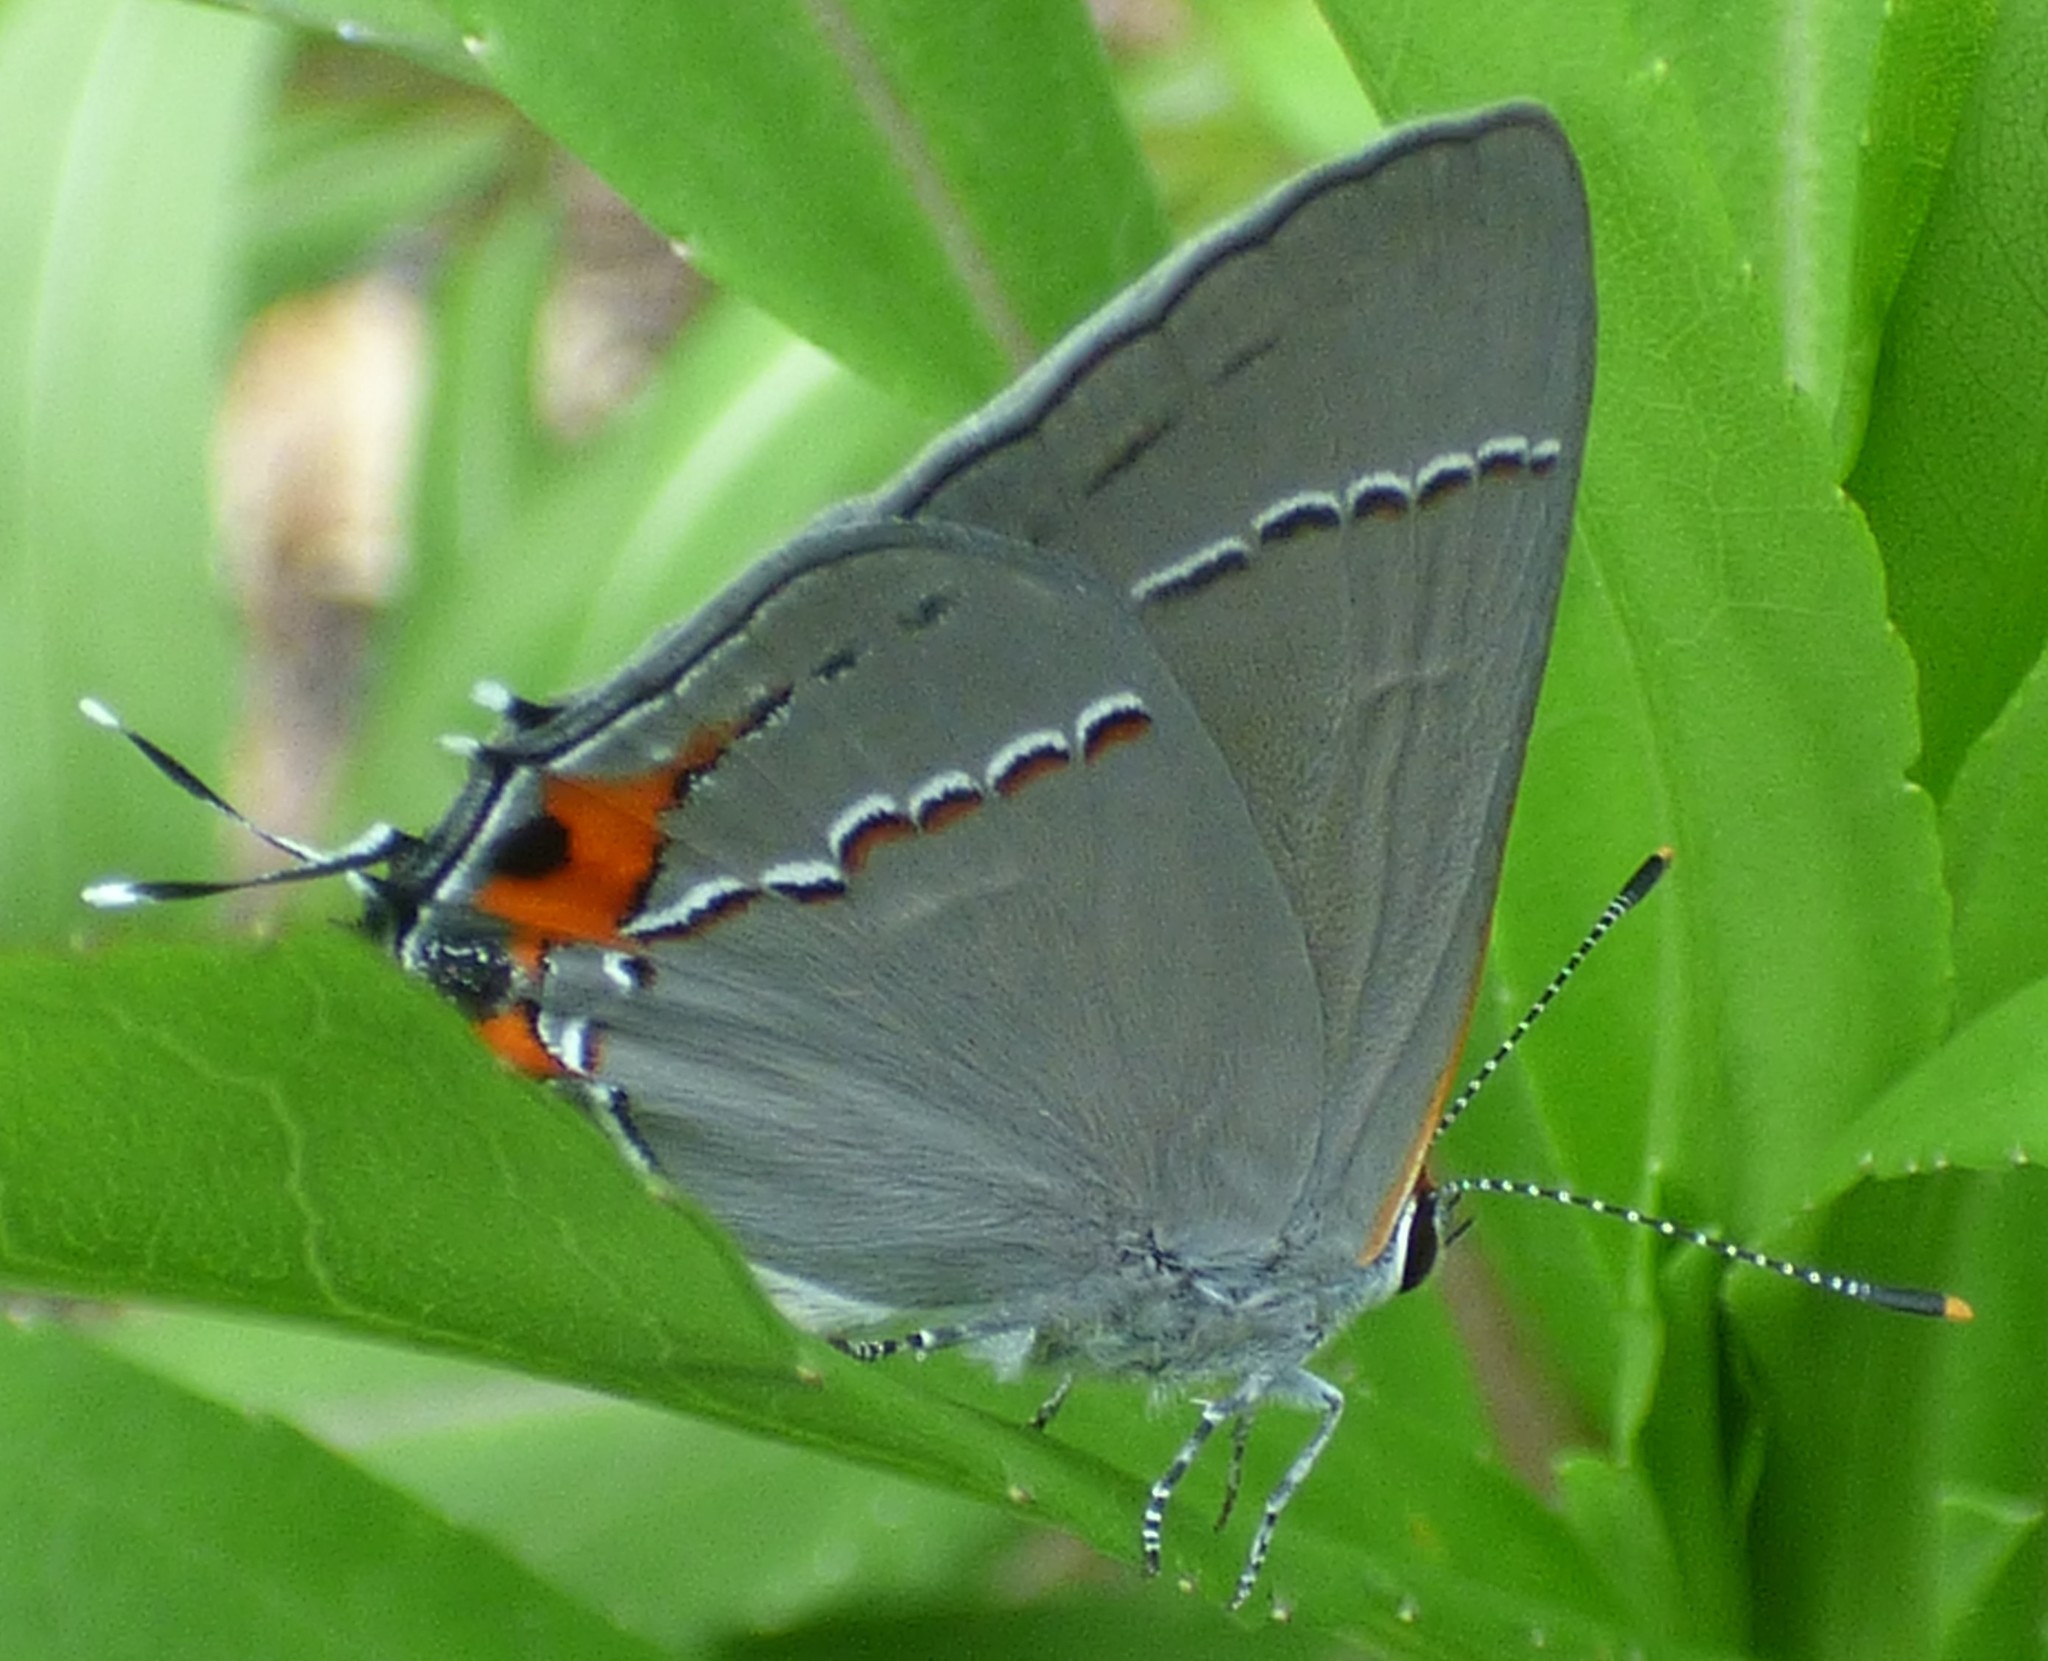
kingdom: Animalia
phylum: Arthropoda
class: Insecta
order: Lepidoptera
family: Lycaenidae
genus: Strymon
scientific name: Strymon melinus
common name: Gray hairstreak
